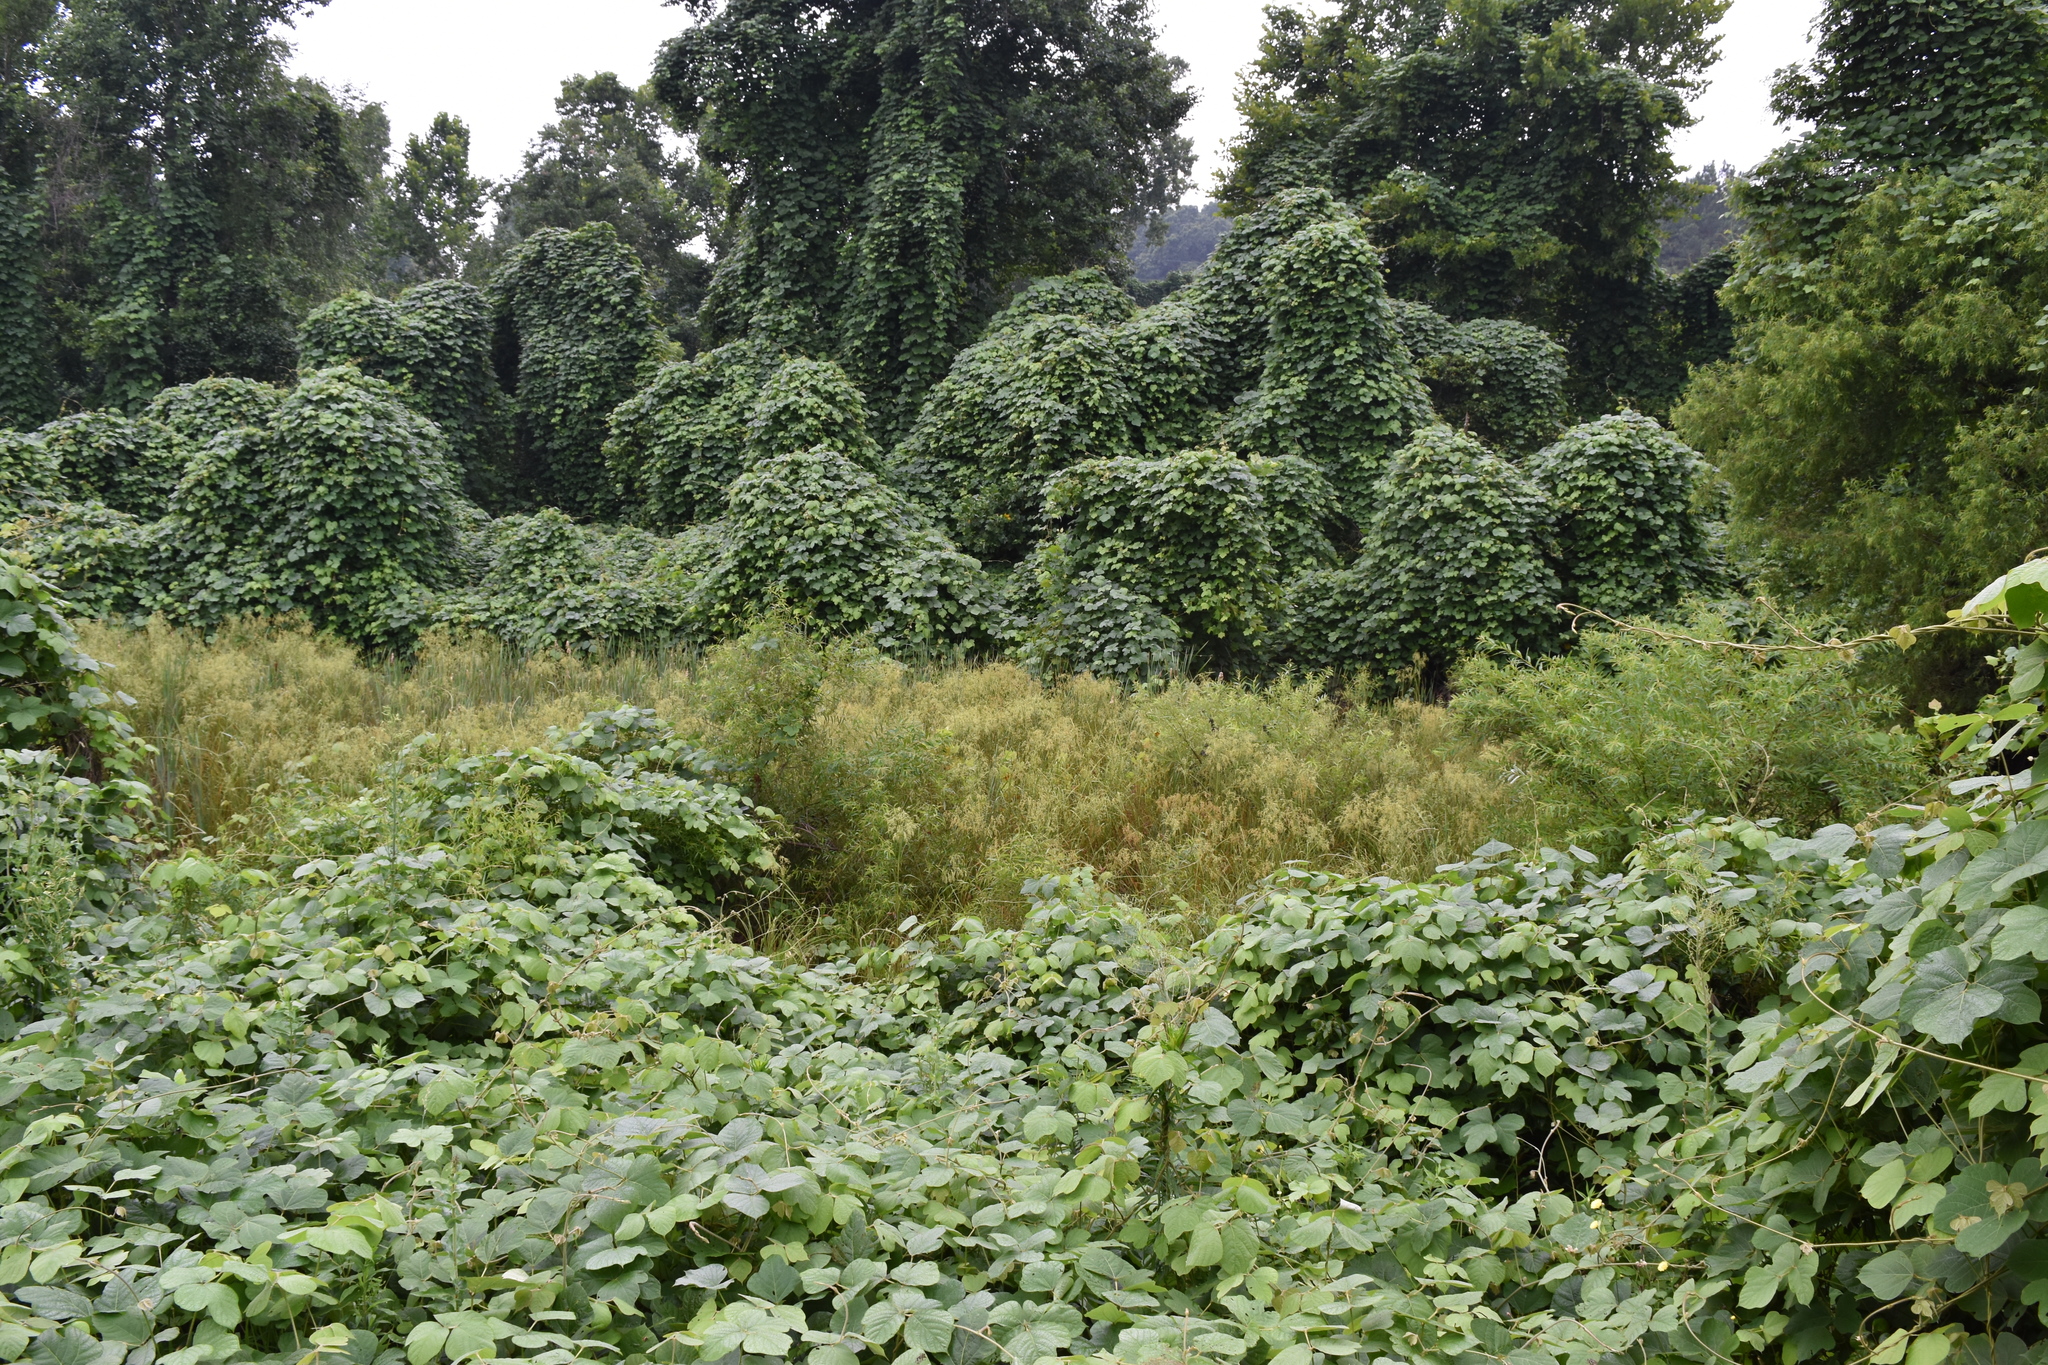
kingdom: Plantae
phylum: Tracheophyta
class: Magnoliopsida
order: Fabales
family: Fabaceae
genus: Pueraria
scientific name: Pueraria montana
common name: Kudzu
